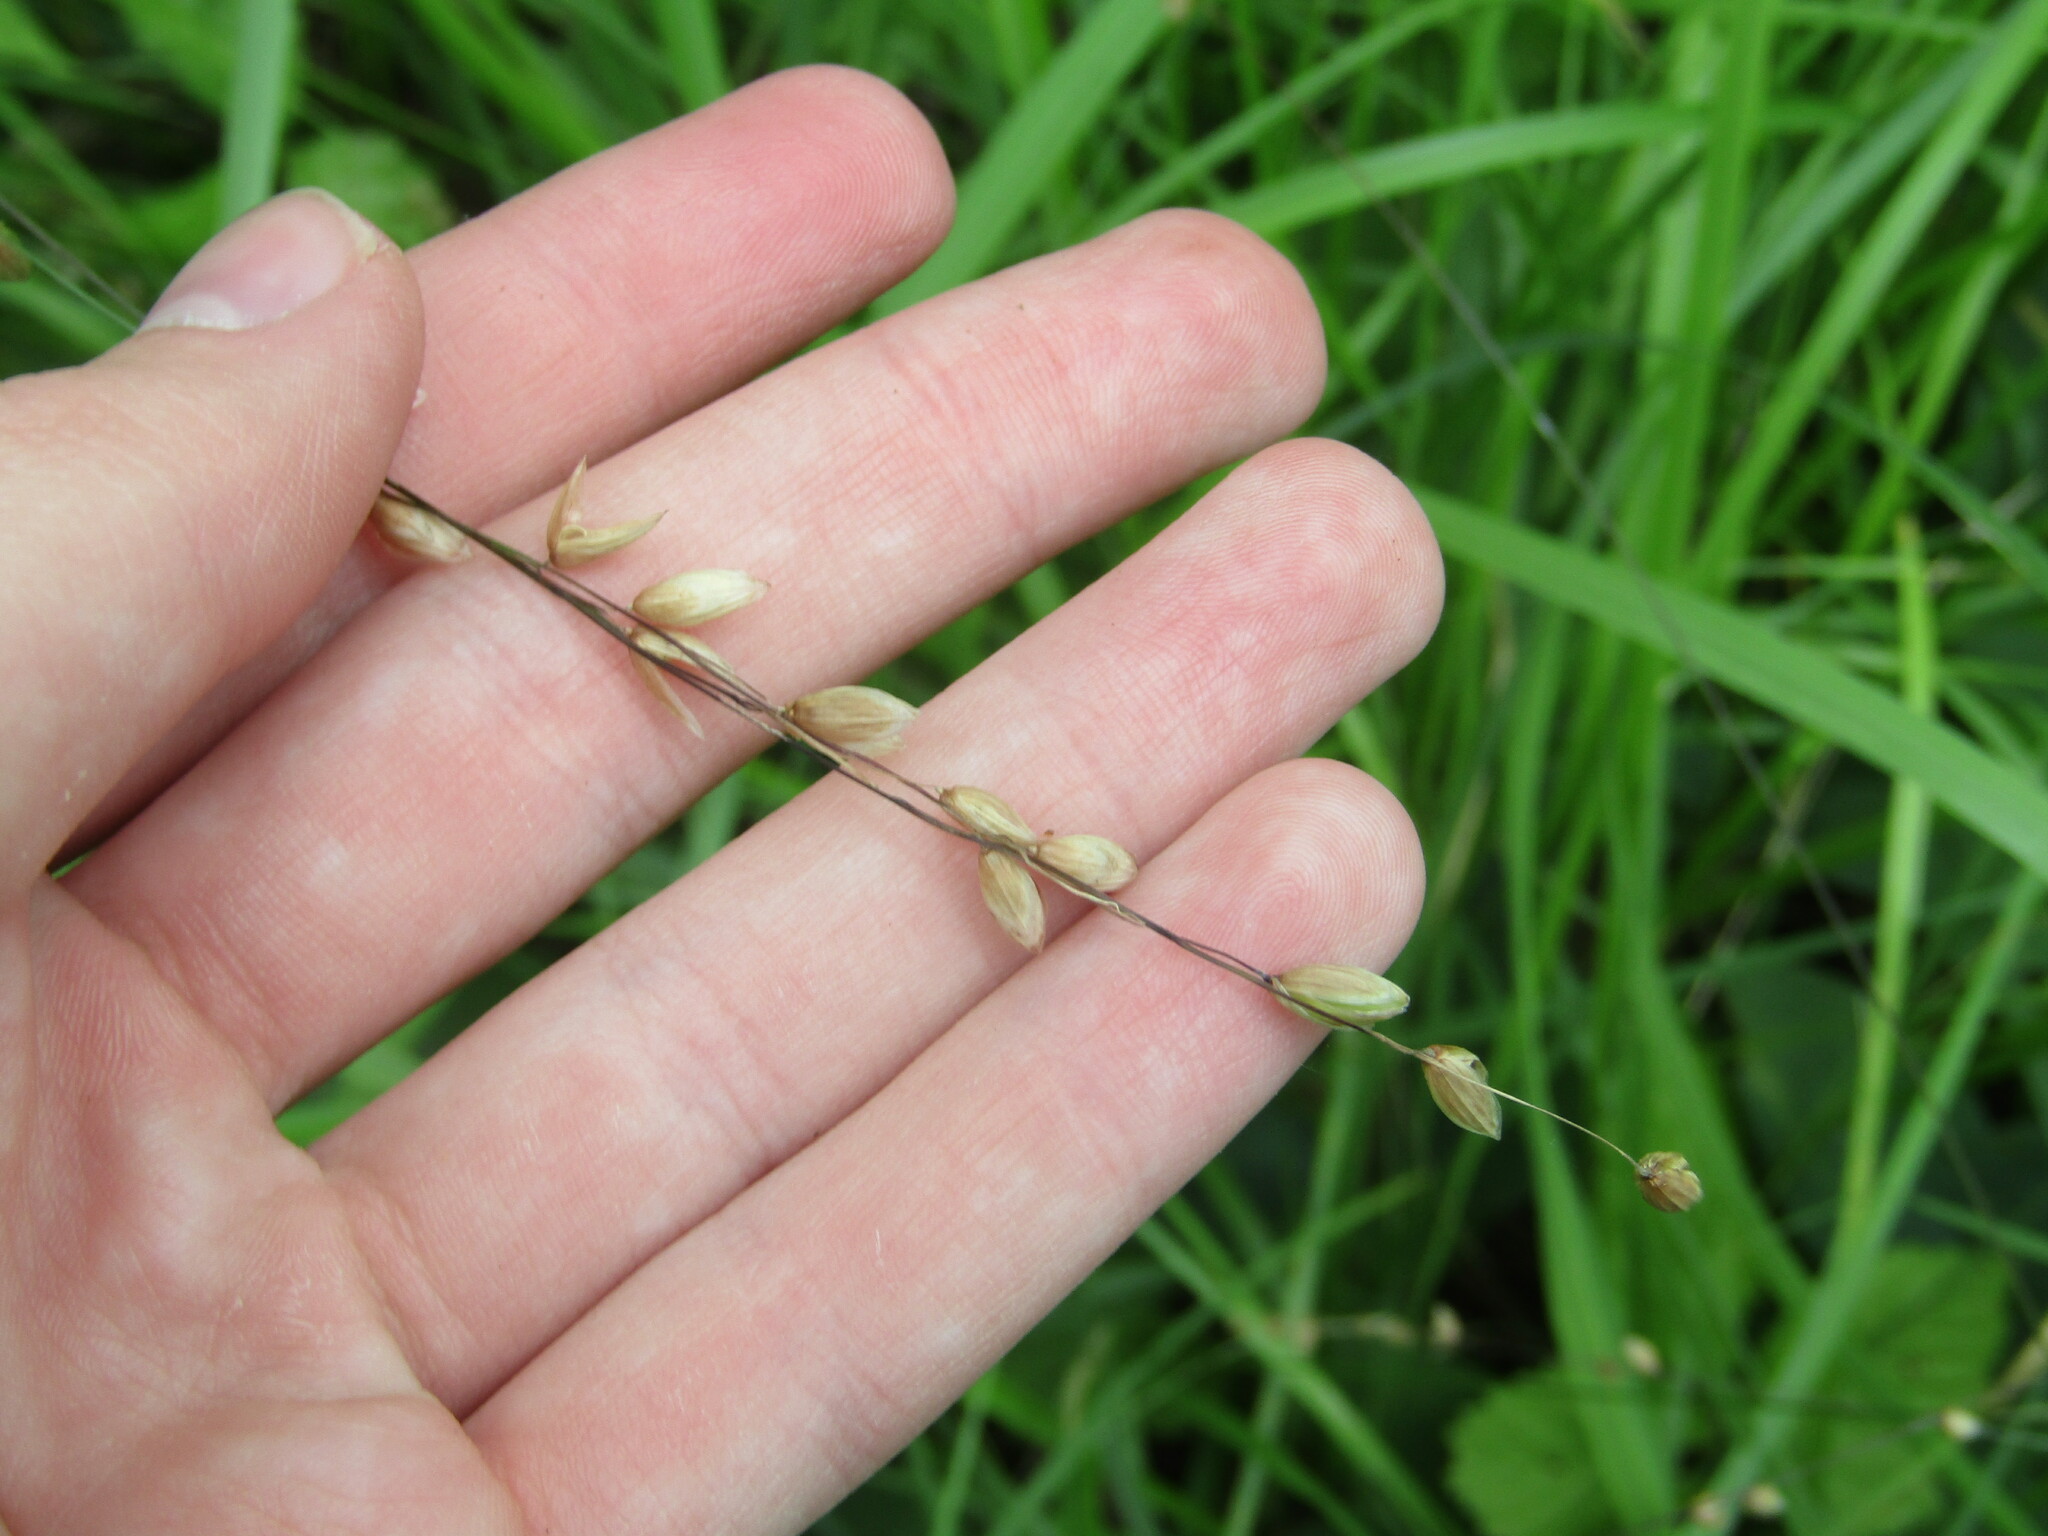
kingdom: Plantae
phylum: Tracheophyta
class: Liliopsida
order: Poales
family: Poaceae
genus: Melica
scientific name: Melica nutans
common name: Mountain melick
